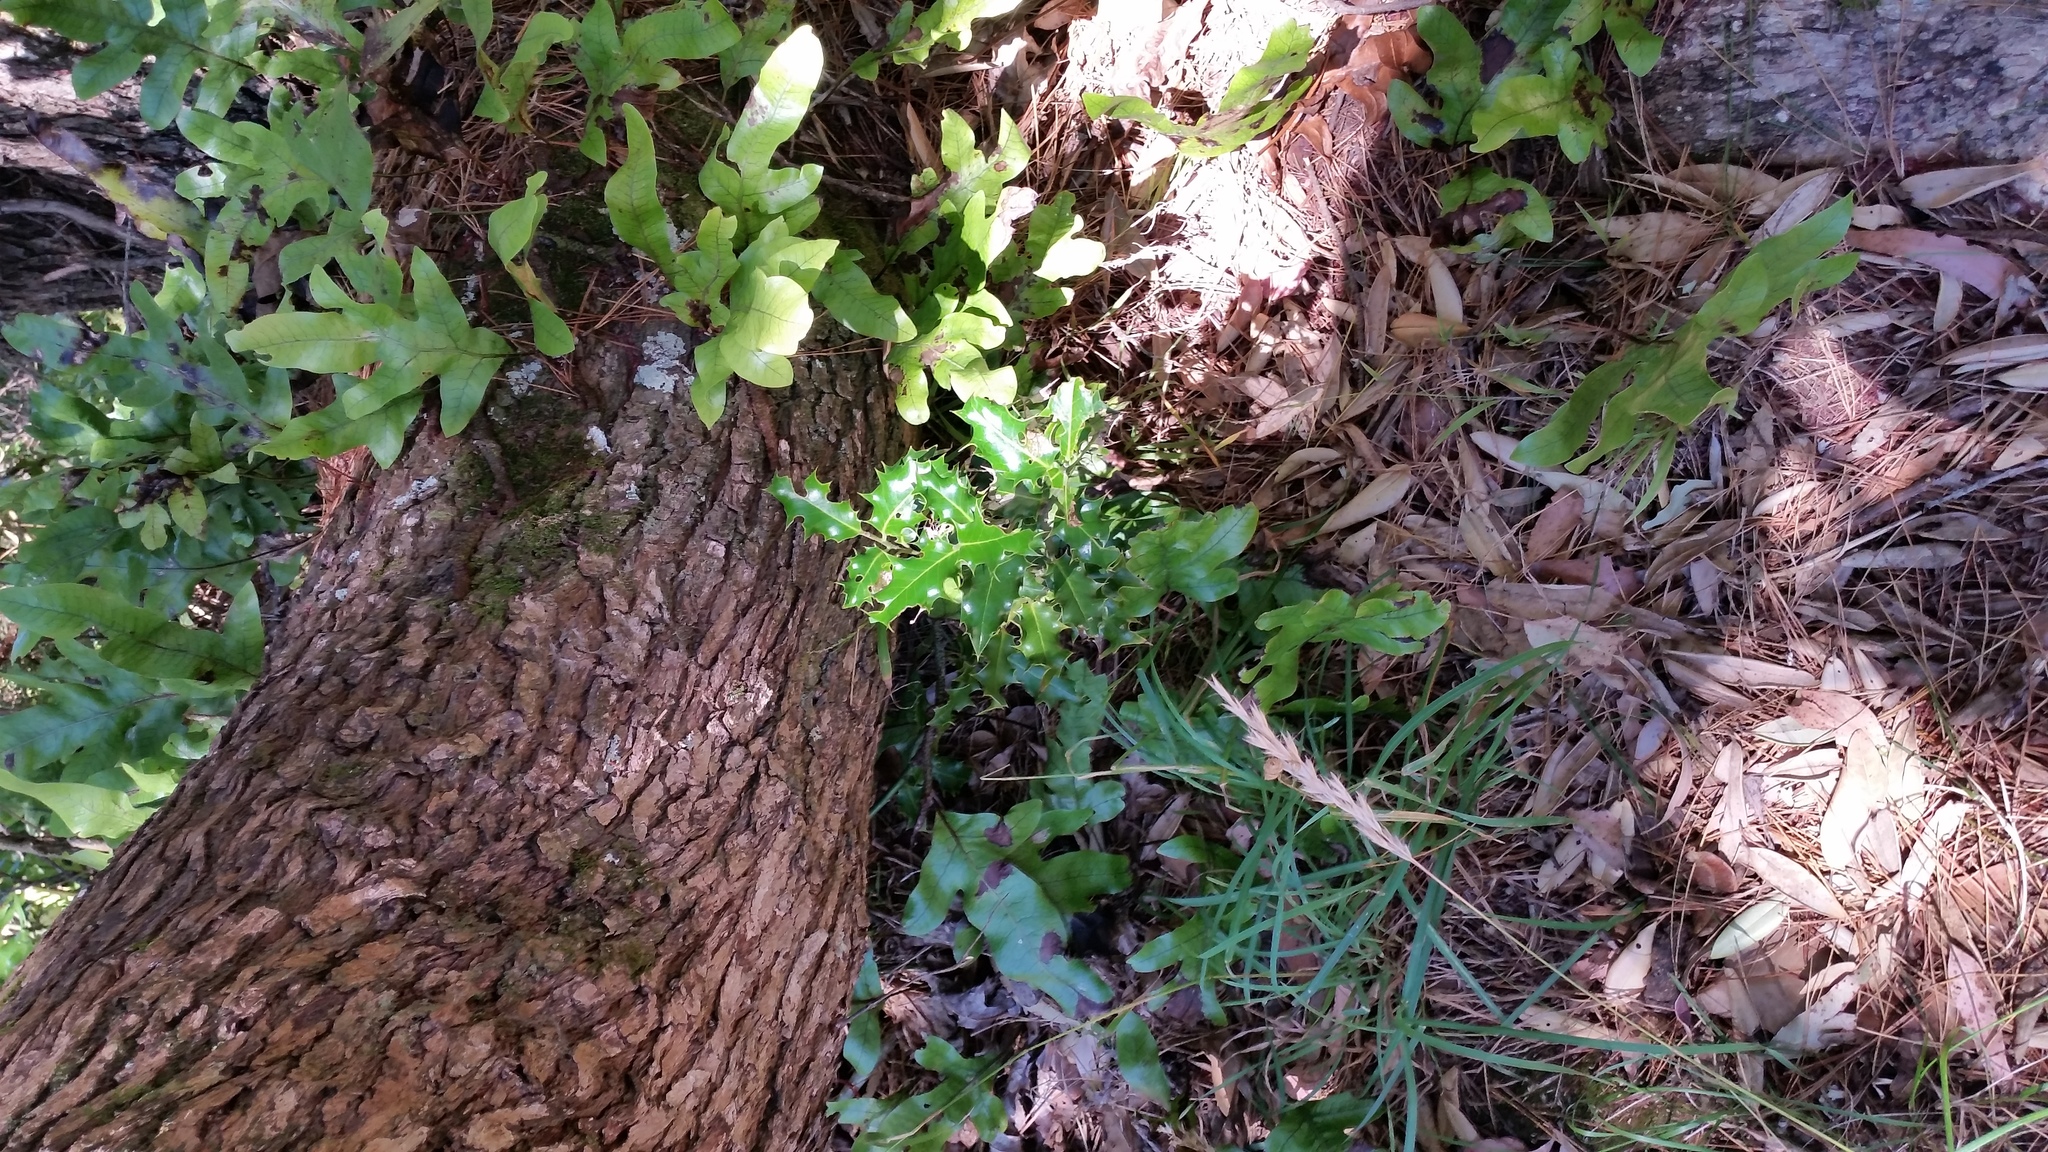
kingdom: Plantae
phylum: Tracheophyta
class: Magnoliopsida
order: Aquifoliales
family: Aquifoliaceae
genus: Ilex
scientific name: Ilex aquifolium
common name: English holly
